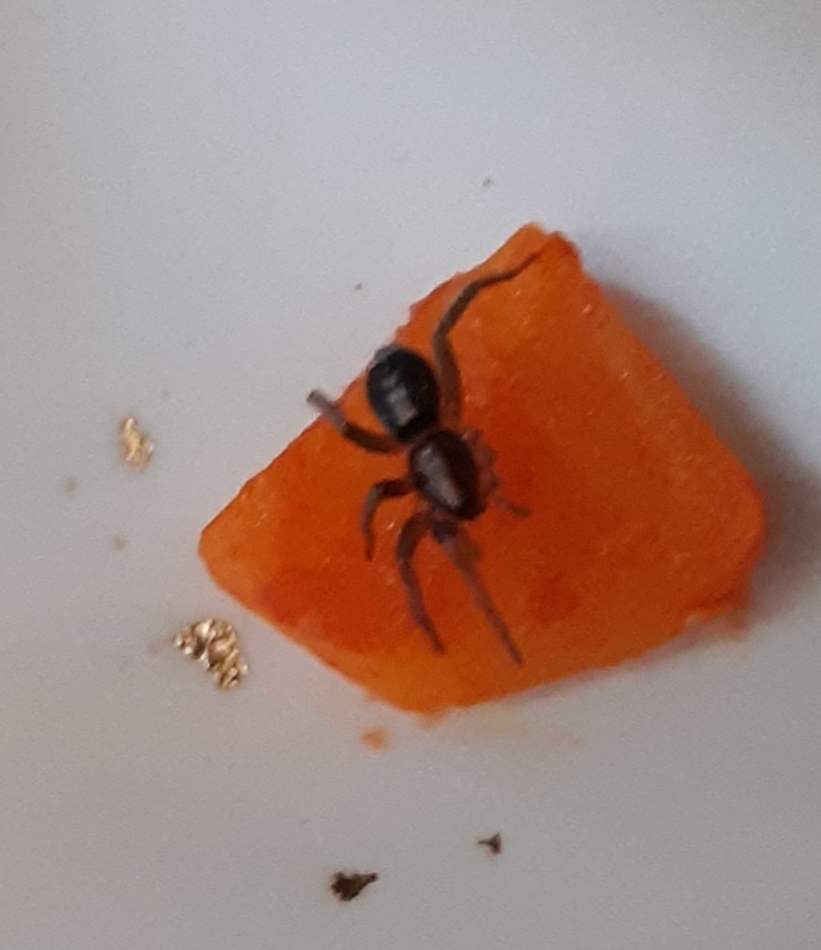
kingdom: Animalia
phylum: Arthropoda
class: Arachnida
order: Araneae
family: Gnaphosidae
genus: Herpyllus
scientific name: Herpyllus ecclesiasticus
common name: Eastern parson spider
